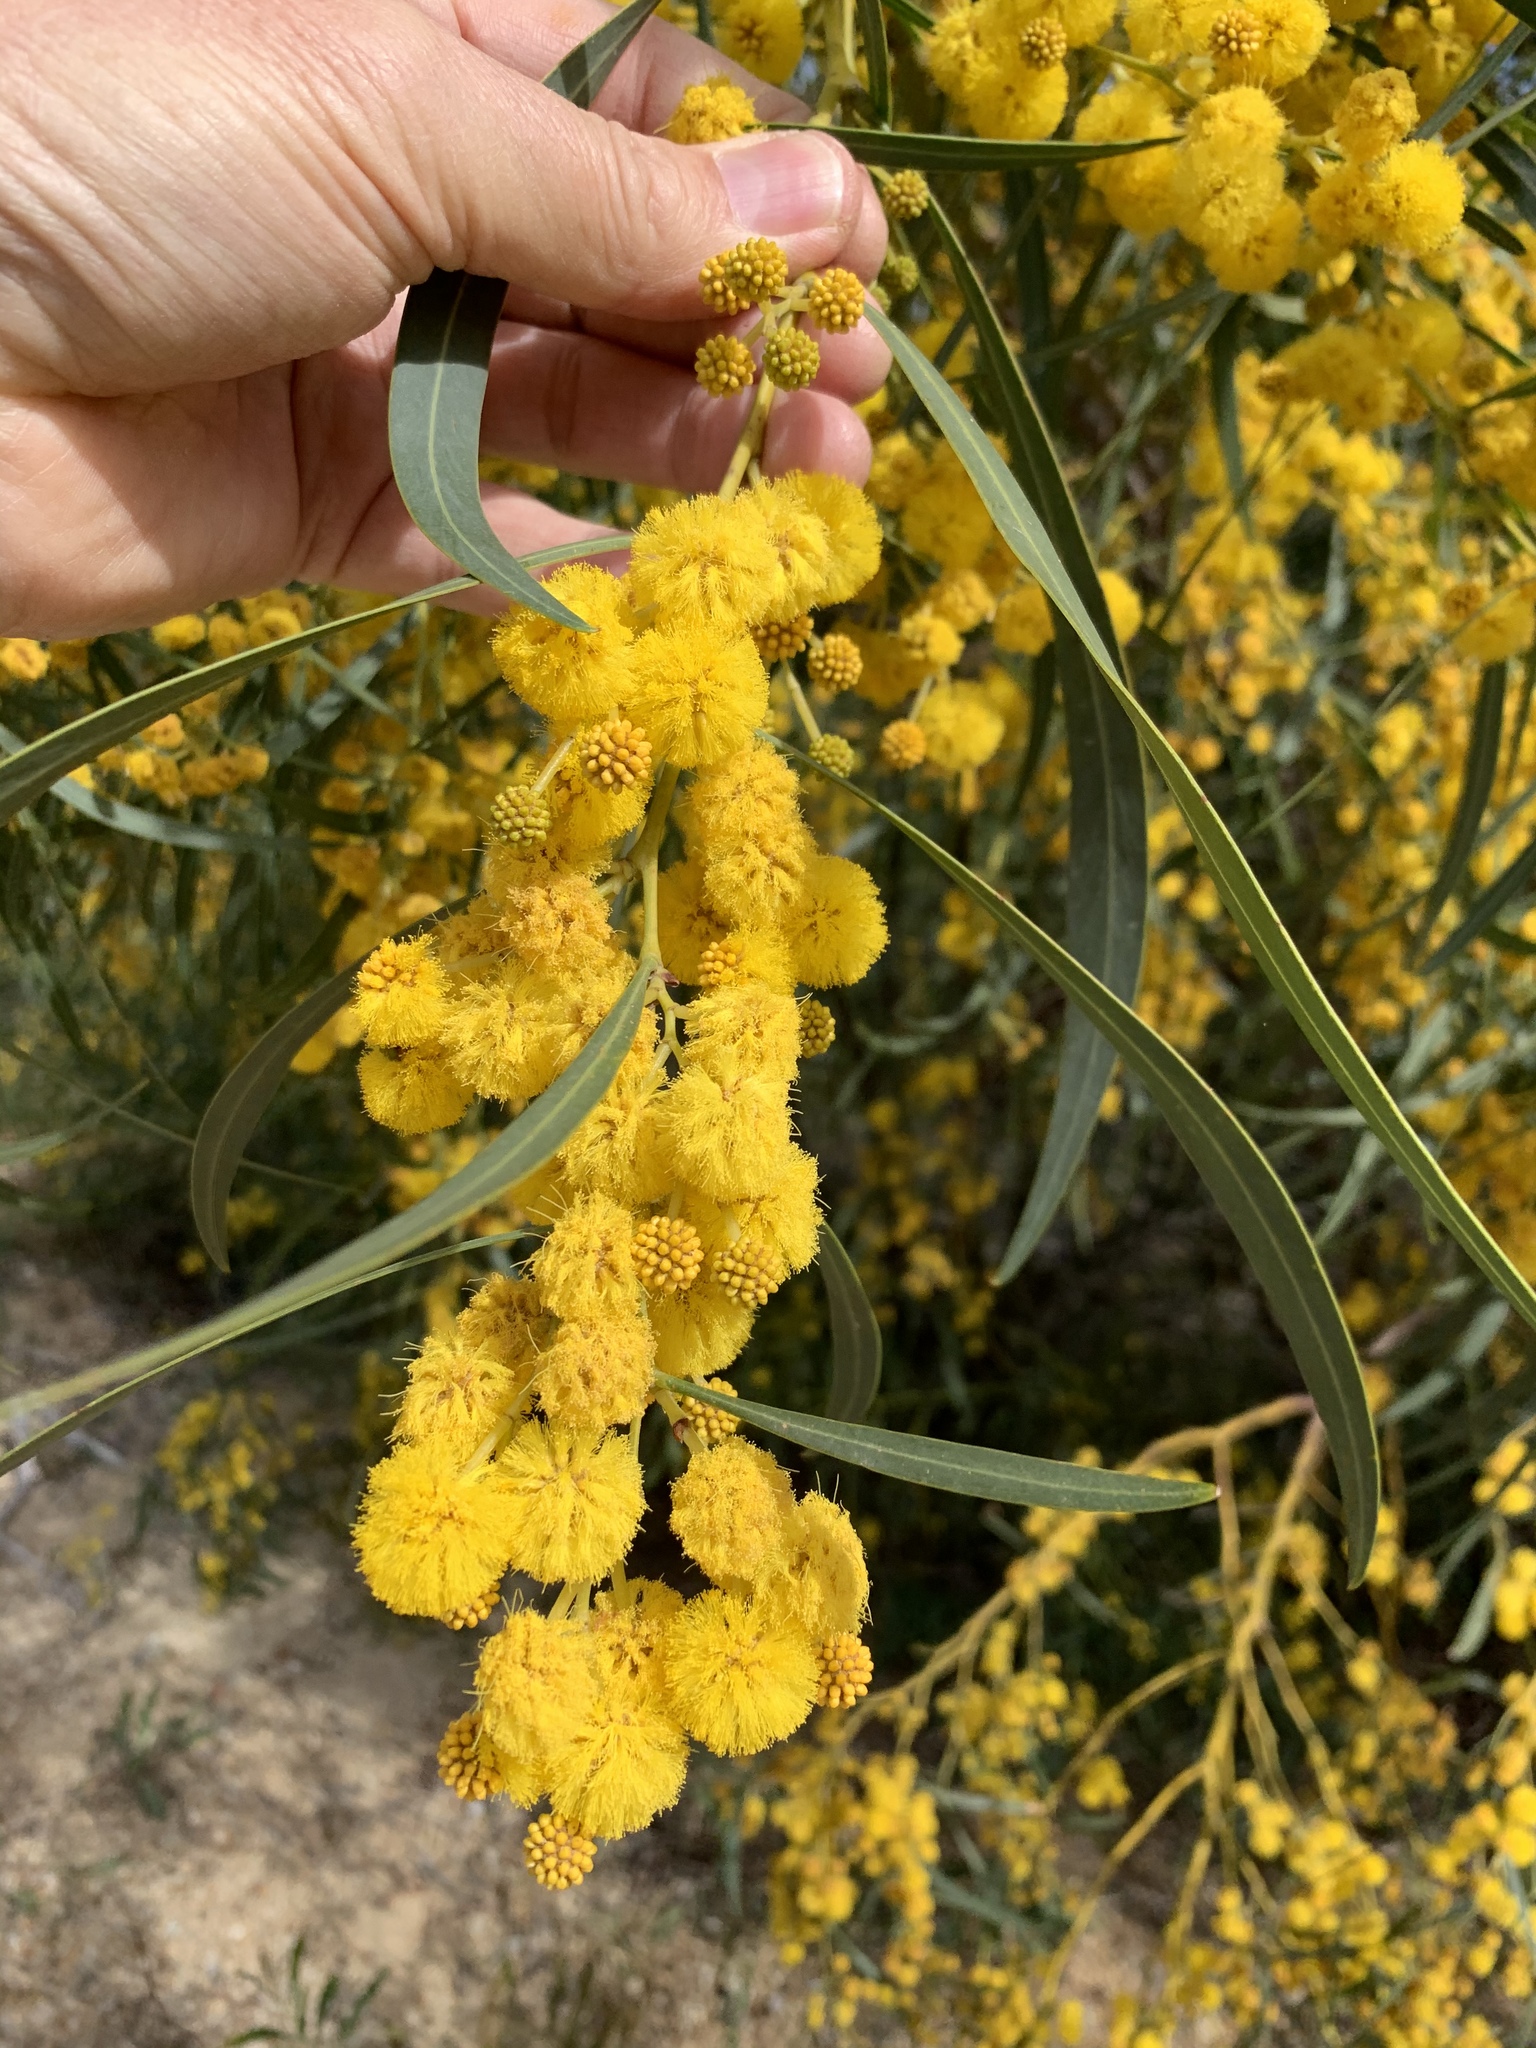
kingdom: Plantae
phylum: Tracheophyta
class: Magnoliopsida
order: Fabales
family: Fabaceae
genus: Acacia
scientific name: Acacia saligna
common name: Orange wattle
